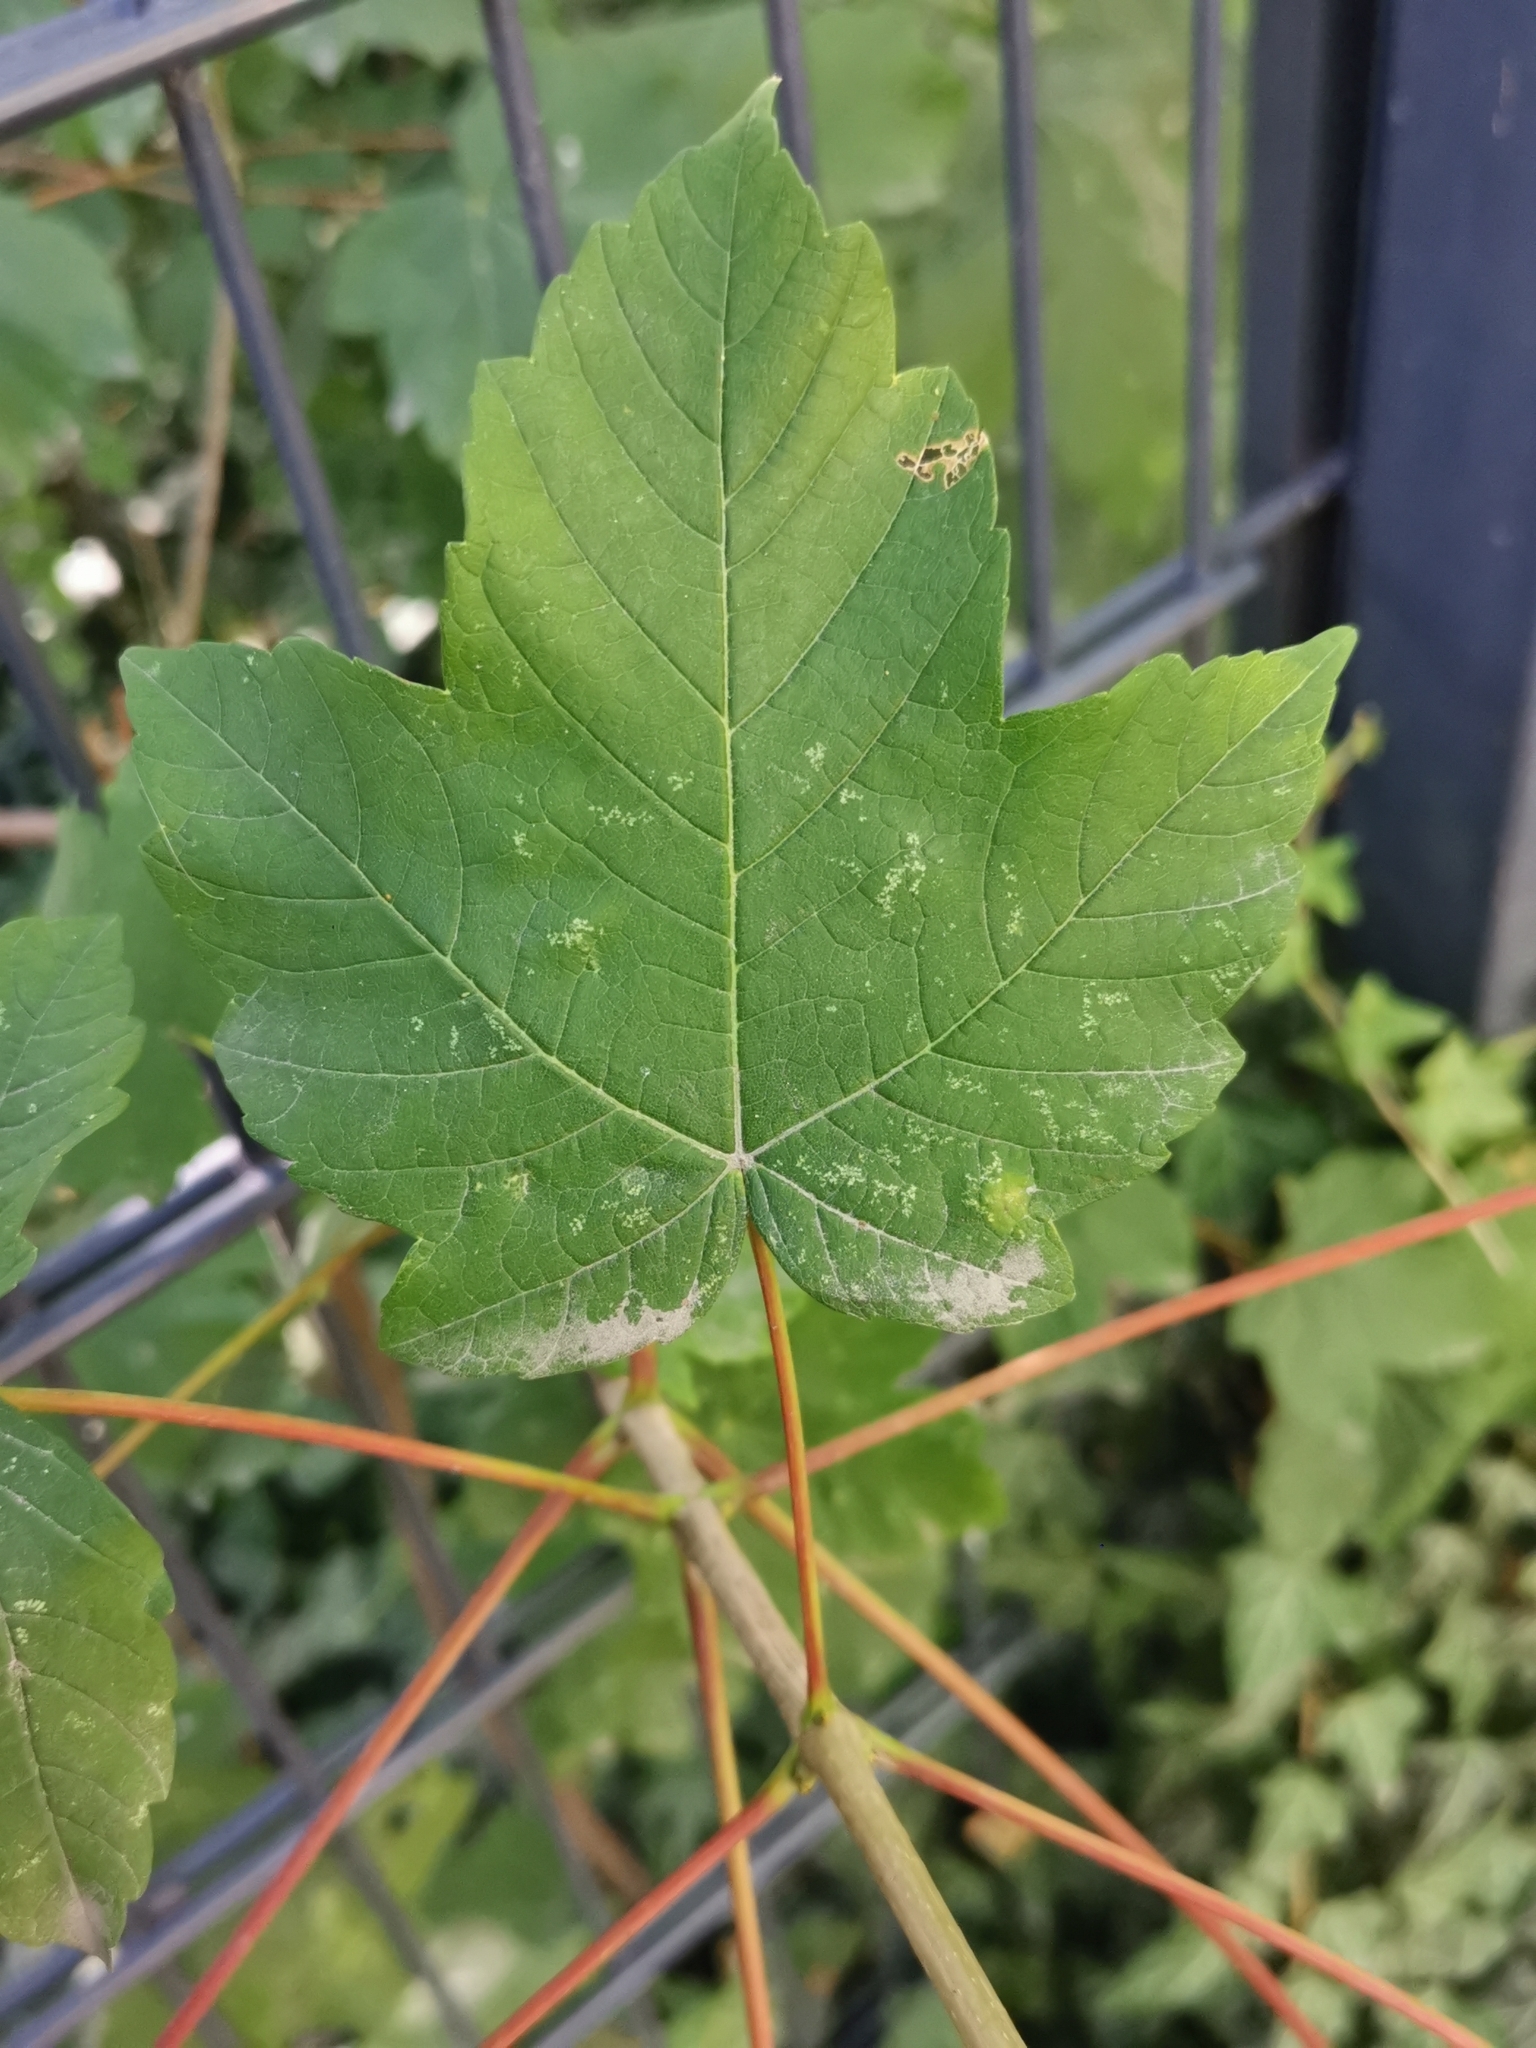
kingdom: Plantae
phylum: Tracheophyta
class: Magnoliopsida
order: Sapindales
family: Sapindaceae
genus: Acer
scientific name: Acer pseudoplatanus
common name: Sycamore
